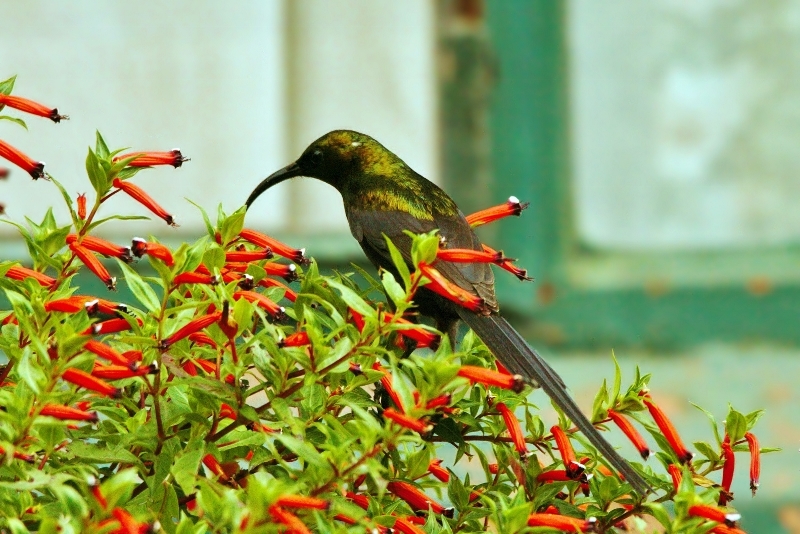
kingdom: Animalia
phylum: Chordata
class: Aves
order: Passeriformes
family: Nectariniidae
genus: Nectarinia
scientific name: Nectarinia kilimensis
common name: Bronzy sunbird
